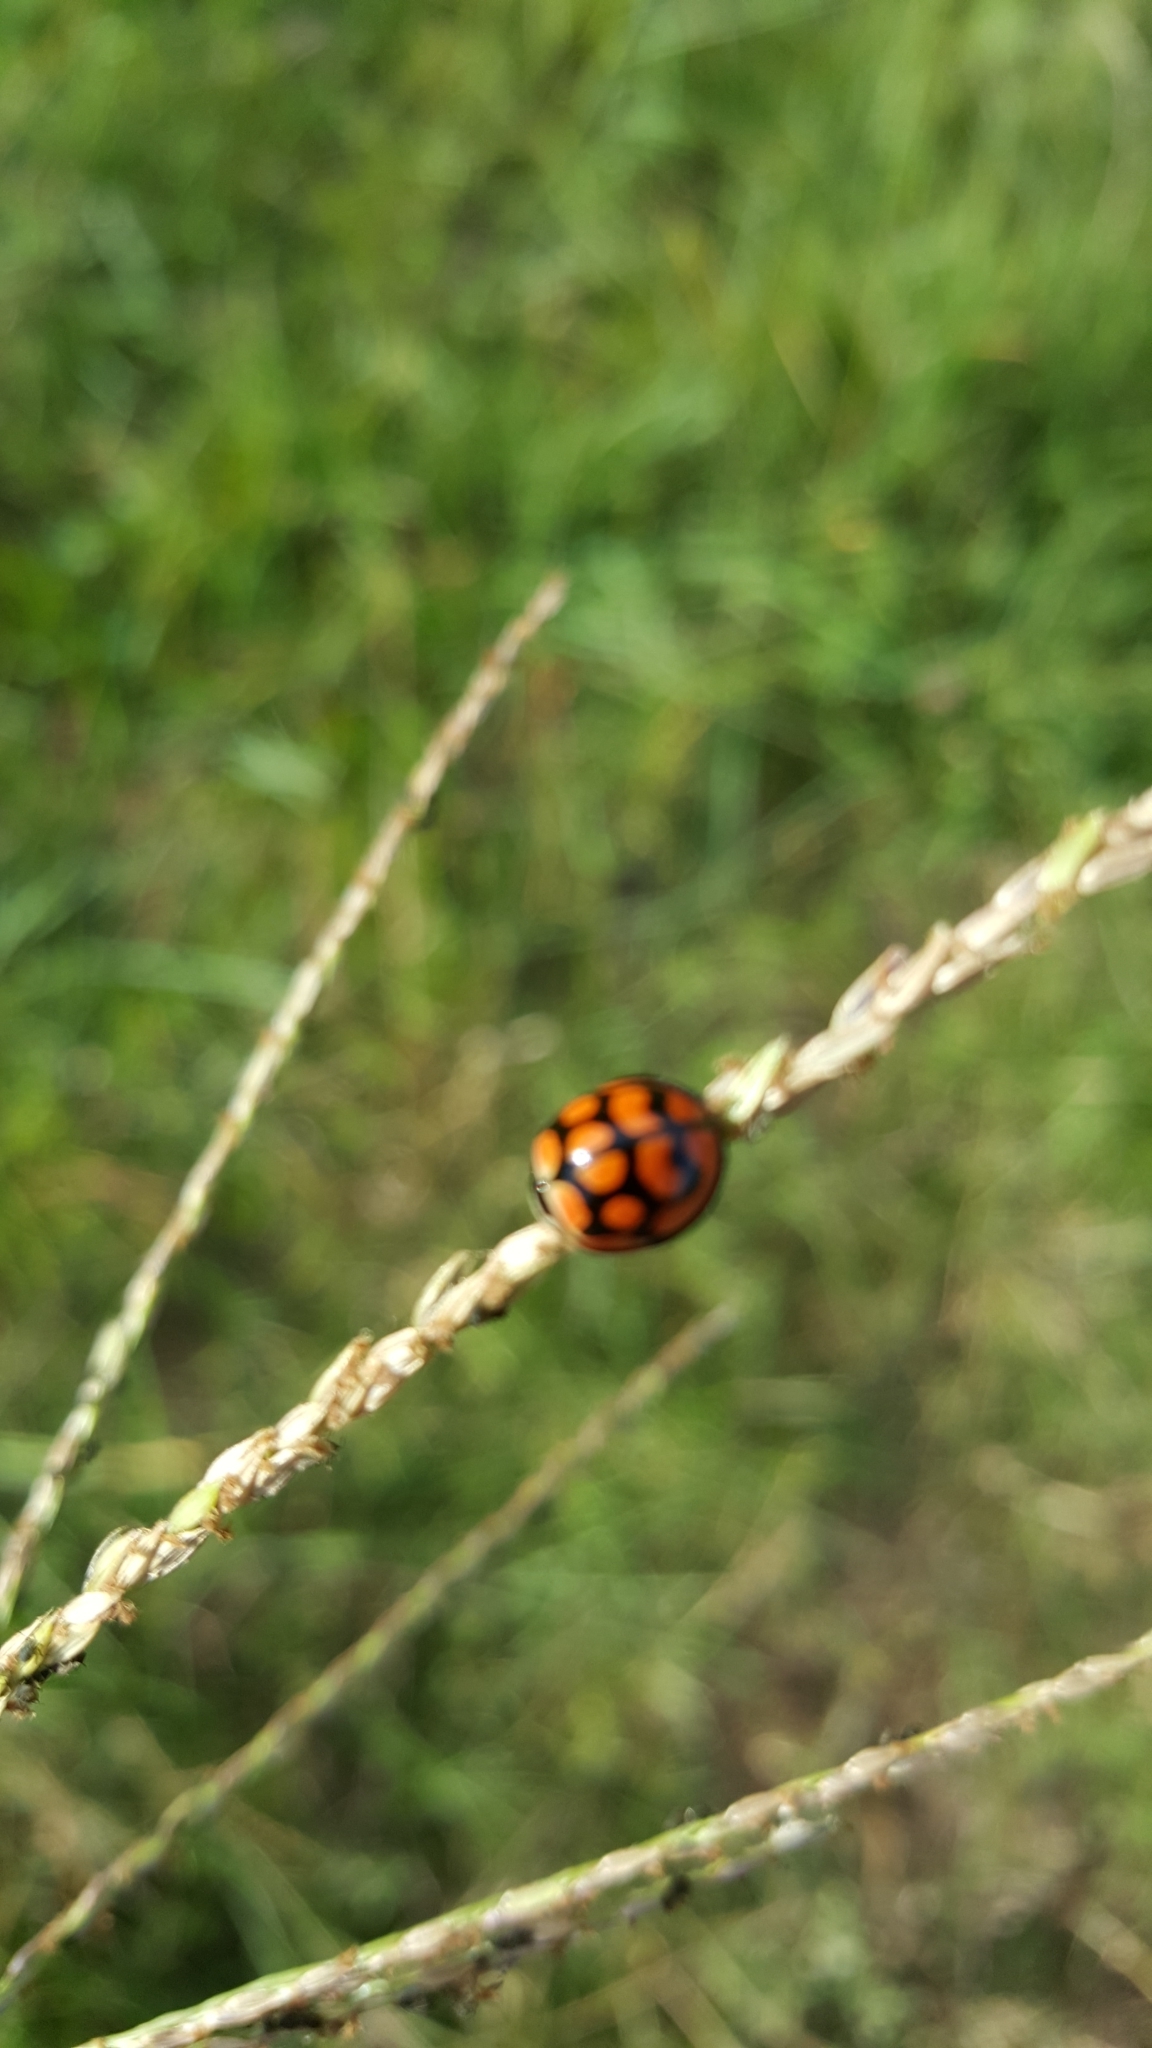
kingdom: Animalia
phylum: Arthropoda
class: Insecta
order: Coleoptera
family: Coccinellidae
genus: Cheilomenes
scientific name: Cheilomenes lunata
